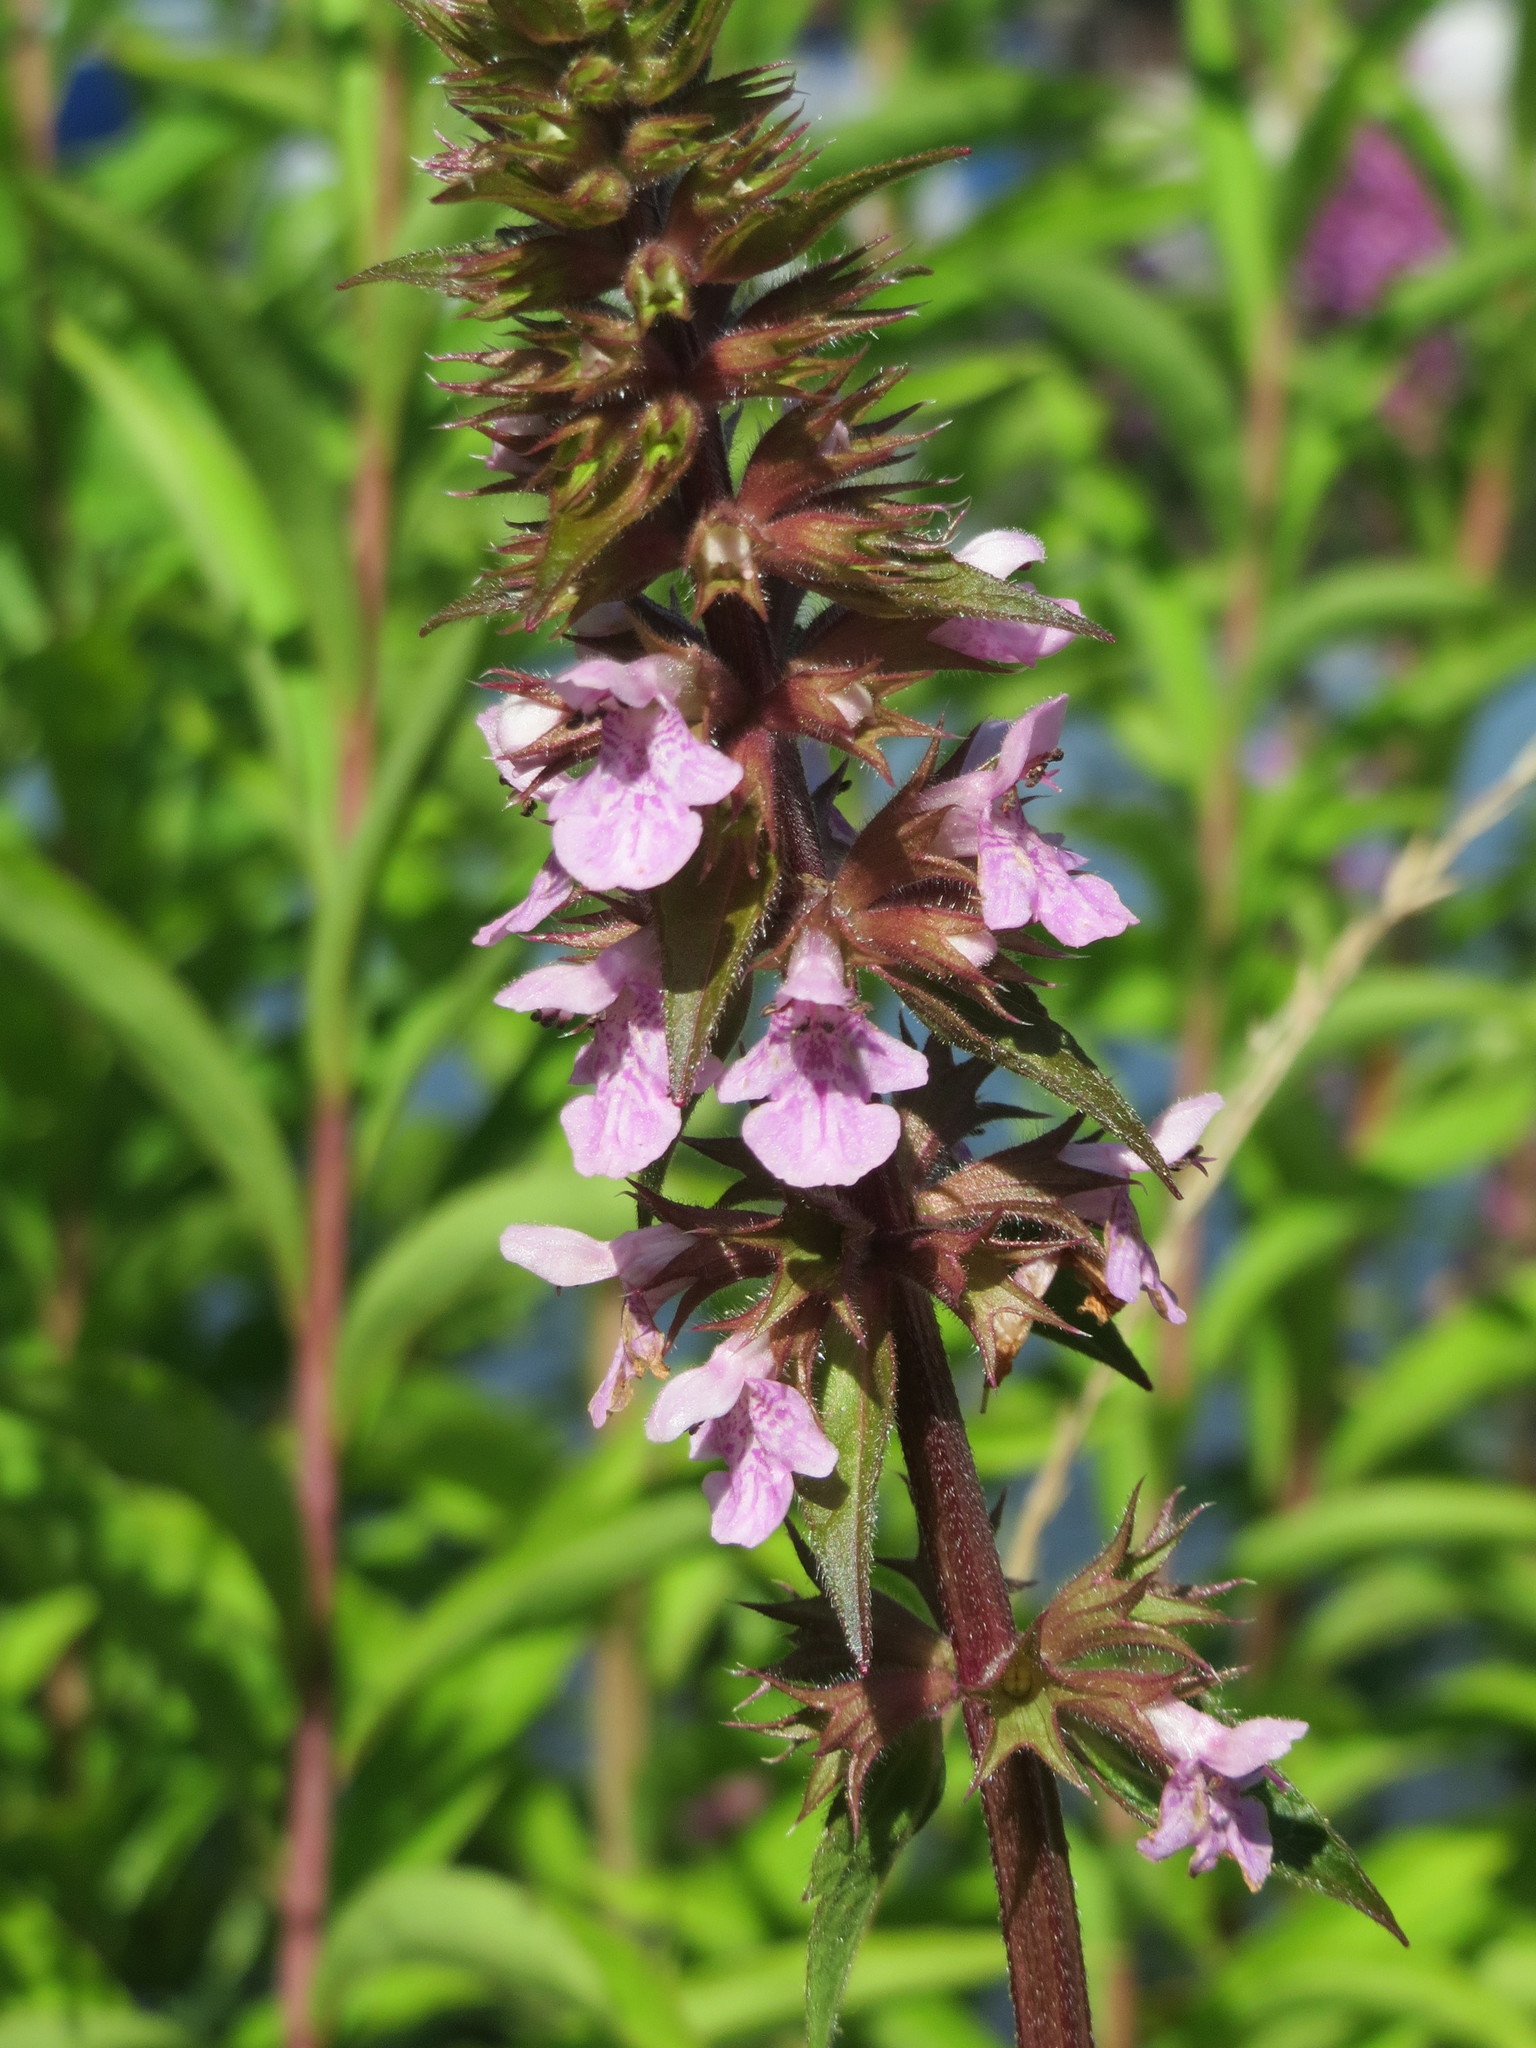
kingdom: Plantae
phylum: Tracheophyta
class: Magnoliopsida
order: Lamiales
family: Lamiaceae
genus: Stachys
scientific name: Stachys palustris
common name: Marsh woundwort
